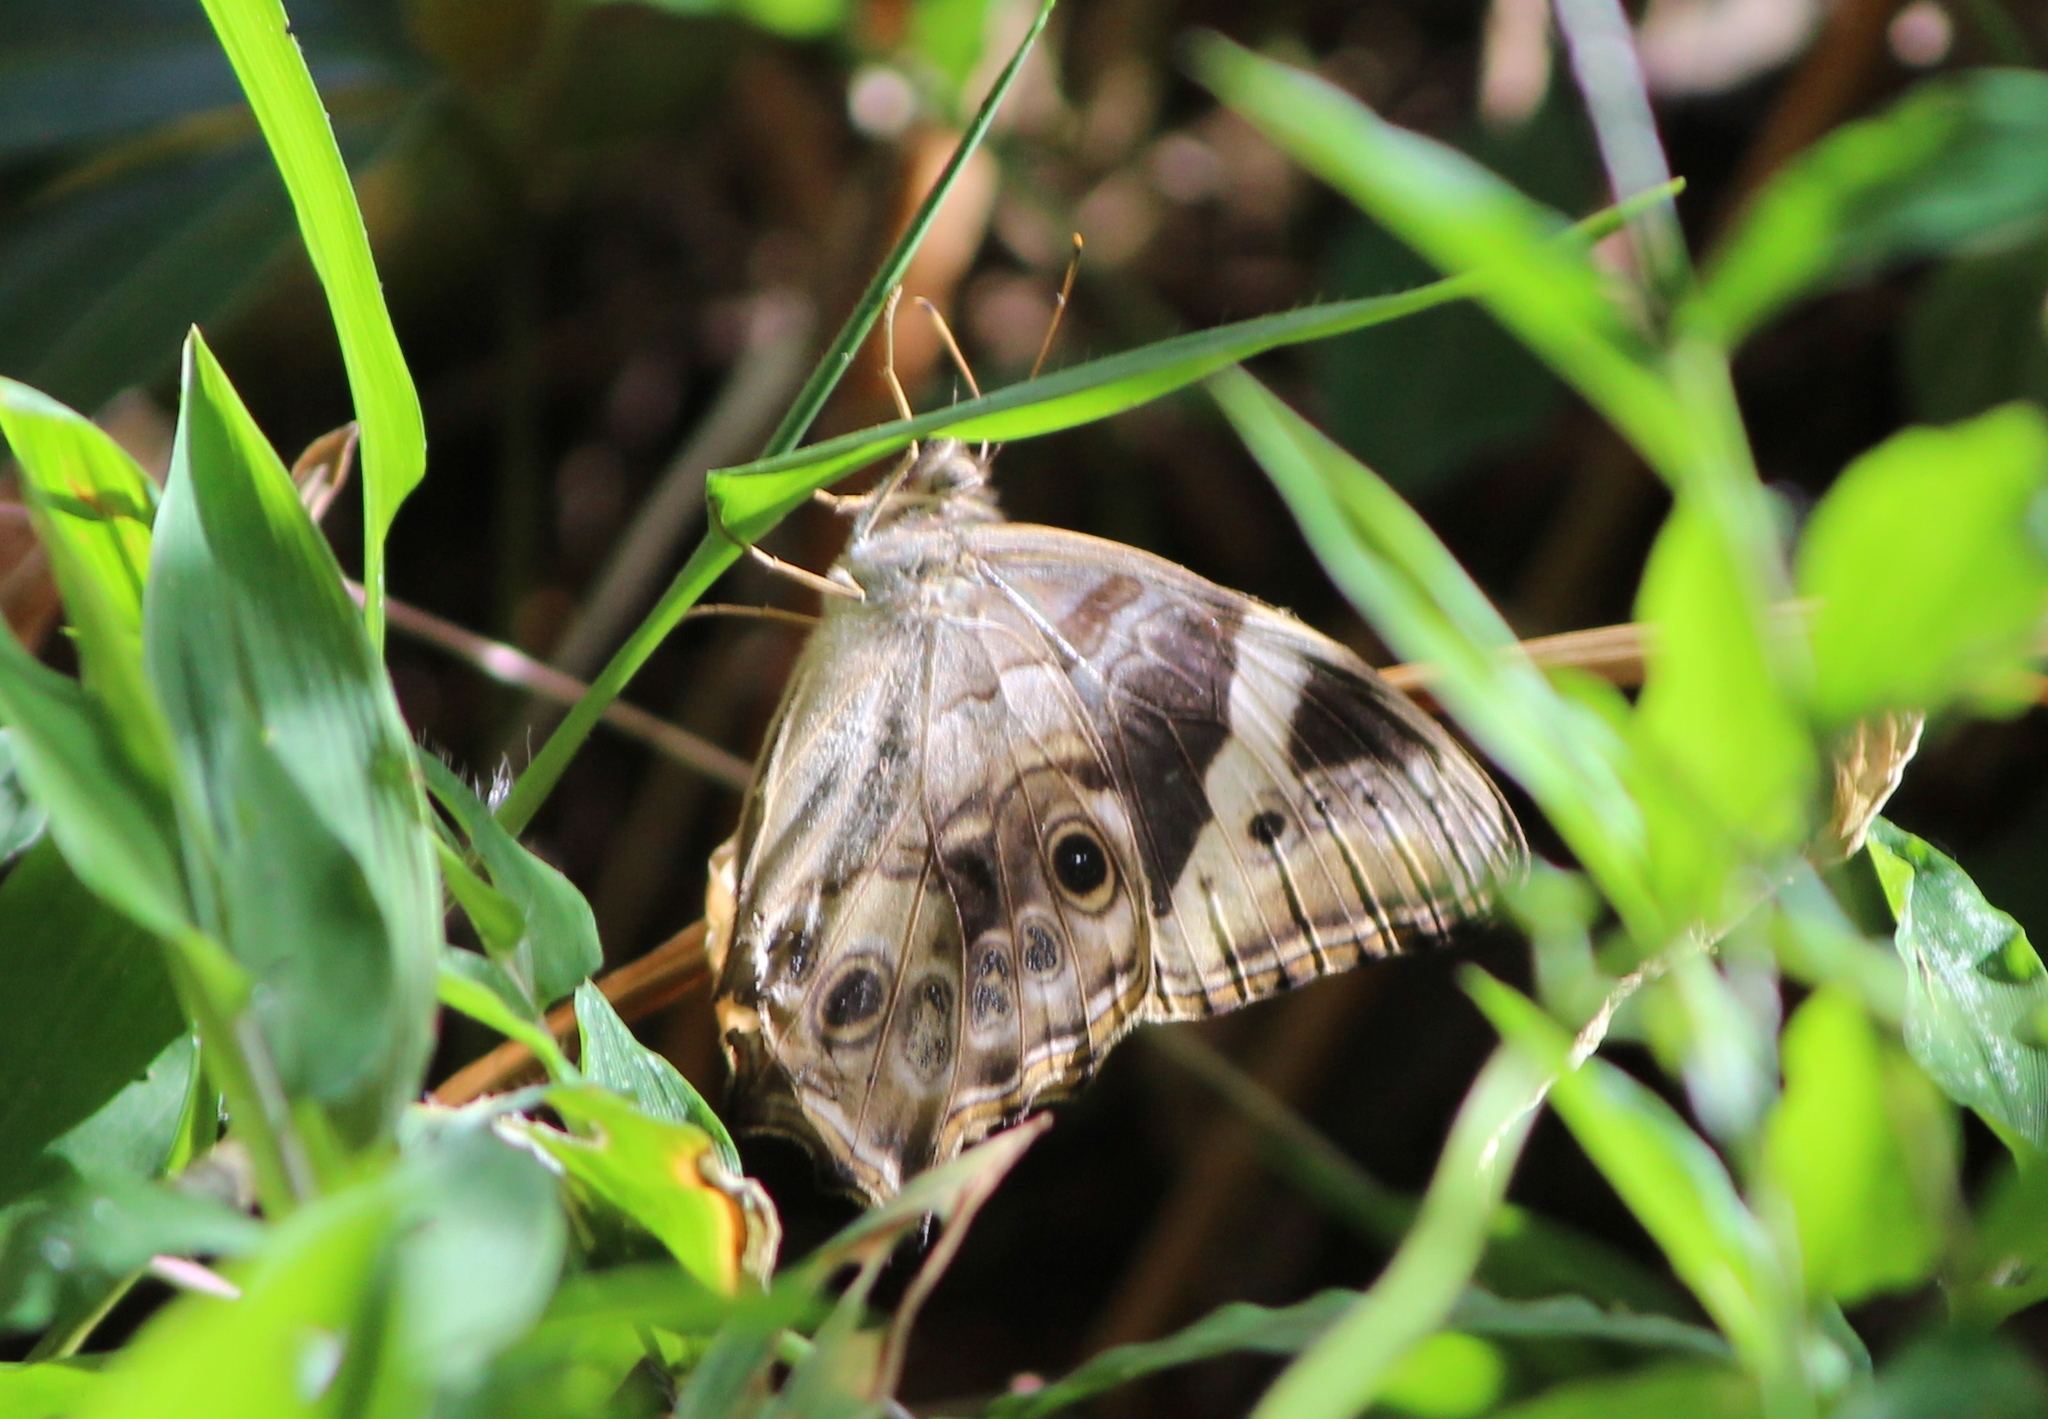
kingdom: Animalia
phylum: Arthropoda
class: Insecta
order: Lepidoptera
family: Nymphalidae
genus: Lethe
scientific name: Lethe drypetis
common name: Tamil treebrown
